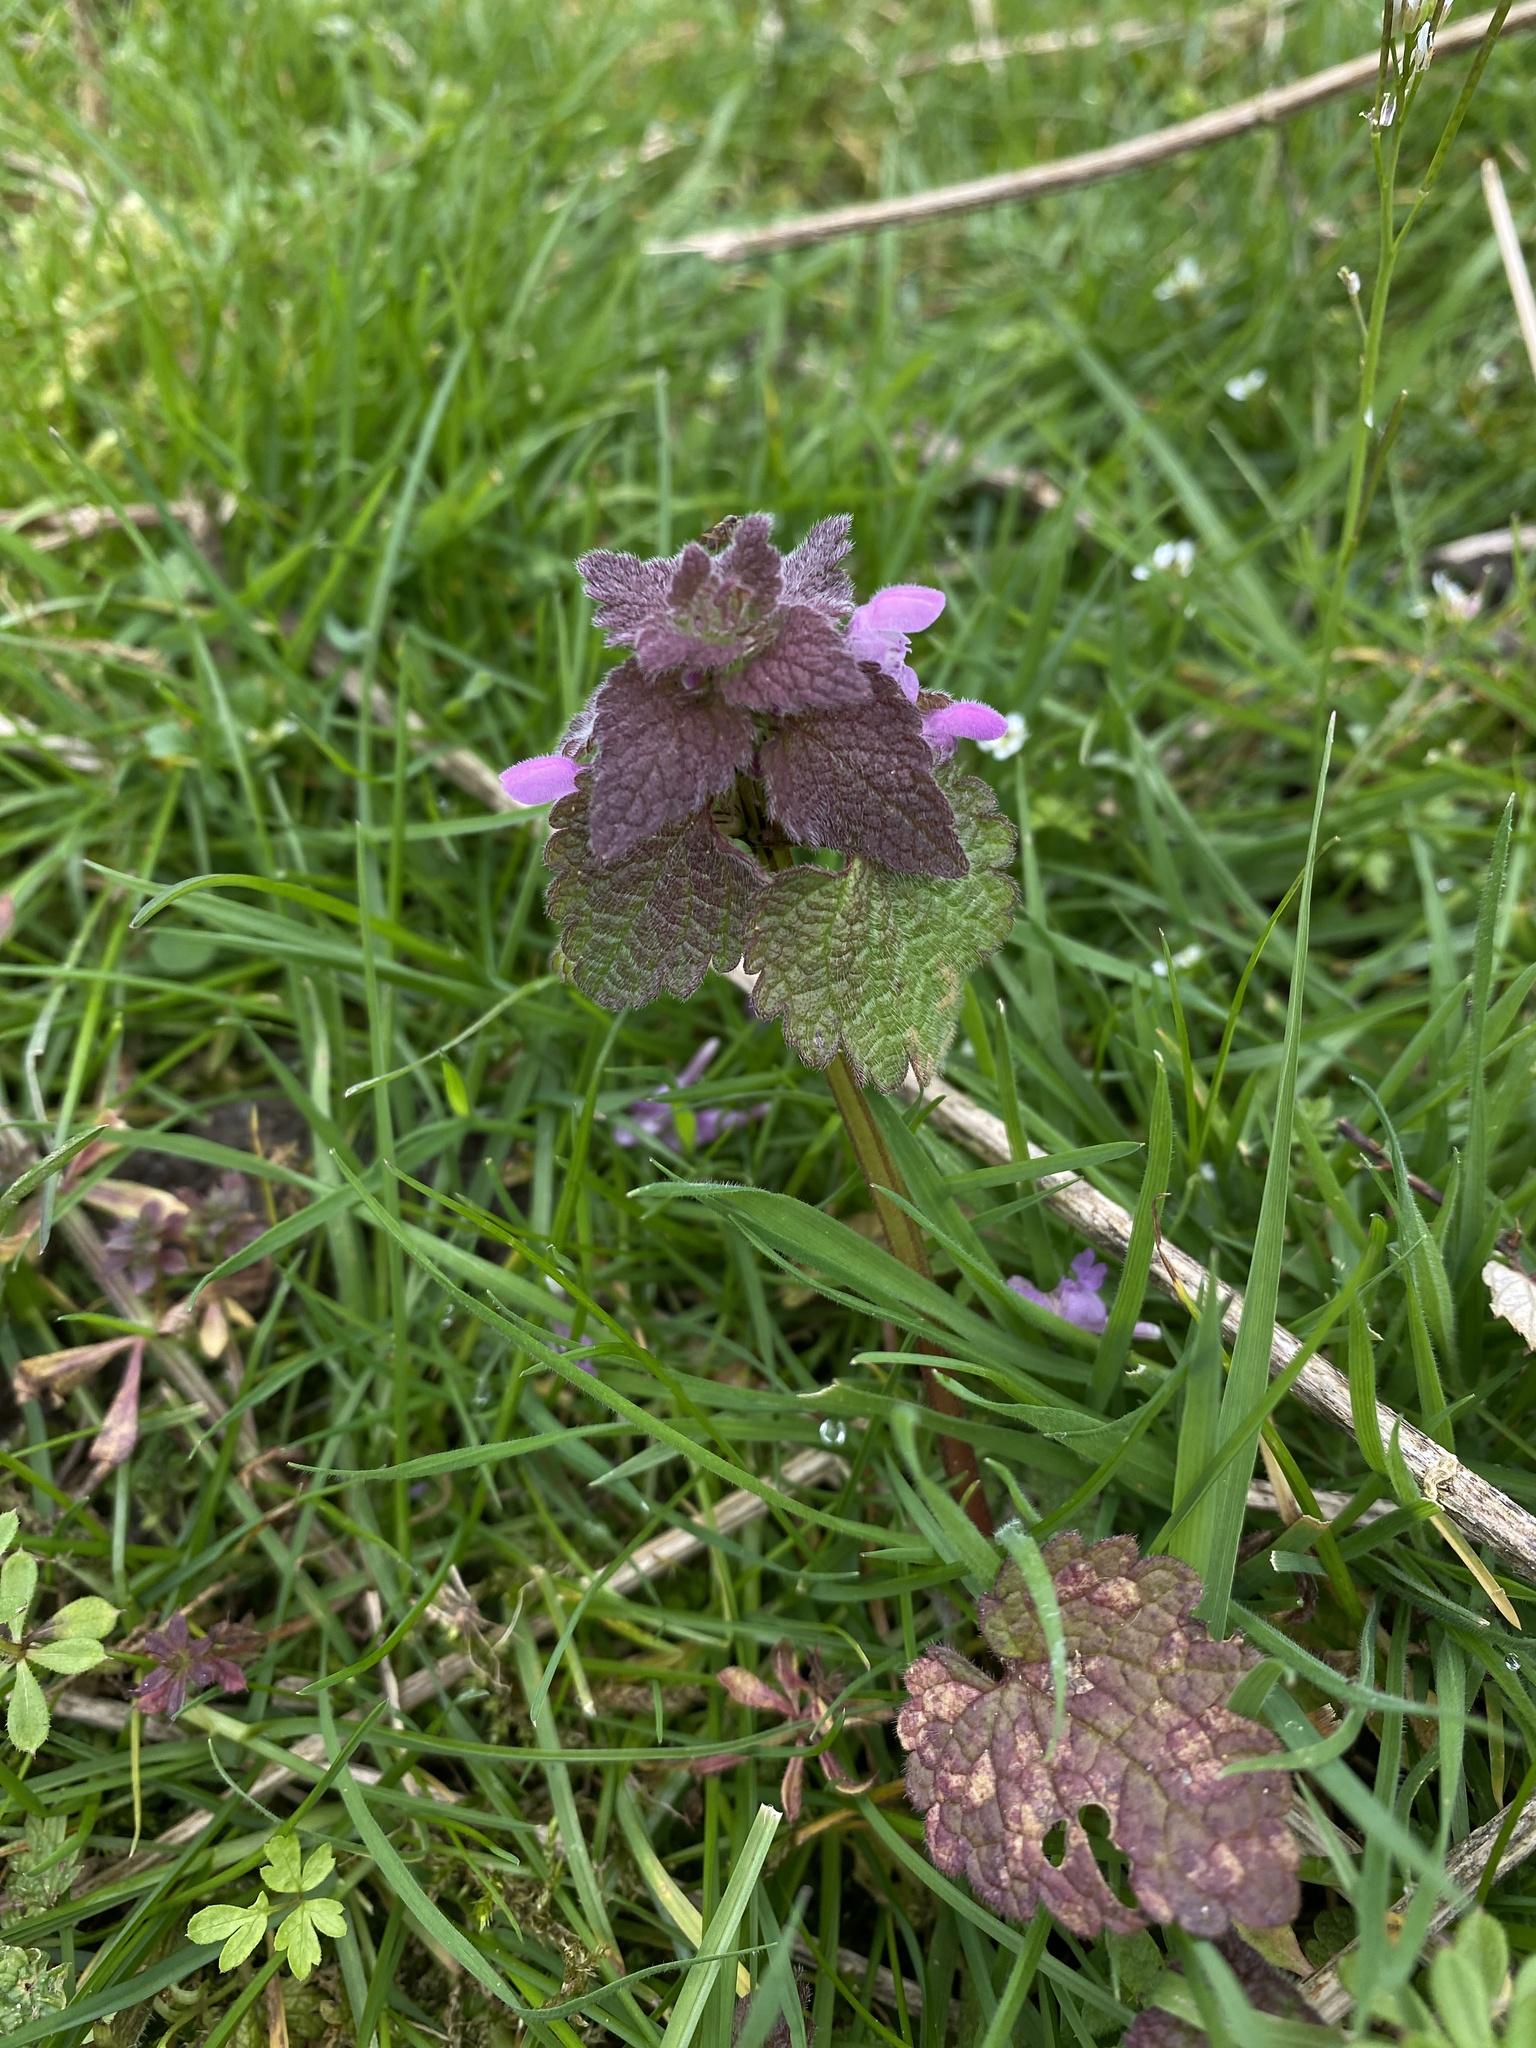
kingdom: Plantae
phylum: Tracheophyta
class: Magnoliopsida
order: Lamiales
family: Lamiaceae
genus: Lamium
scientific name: Lamium purpureum
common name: Red dead-nettle
